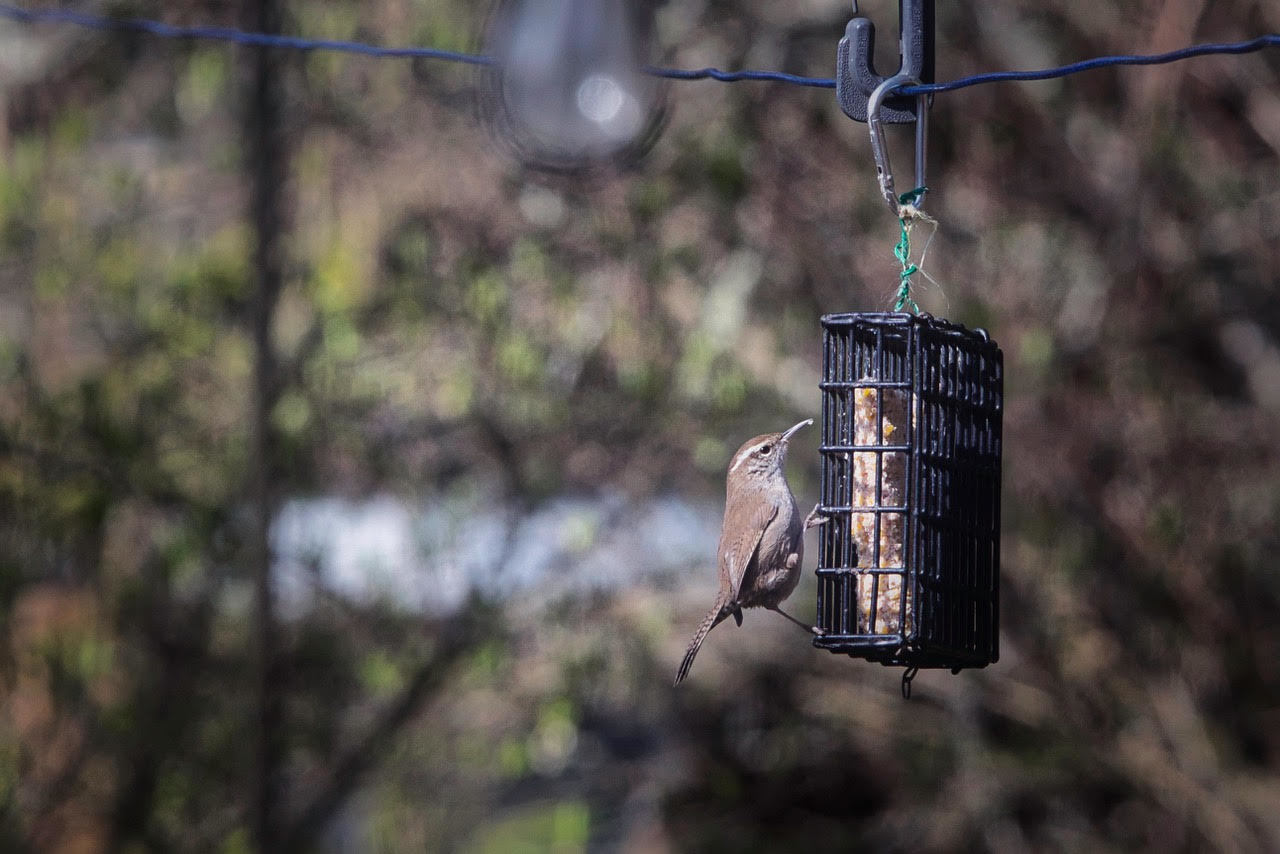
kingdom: Animalia
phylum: Chordata
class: Aves
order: Passeriformes
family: Troglodytidae
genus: Thryomanes
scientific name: Thryomanes bewickii
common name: Bewick's wren
